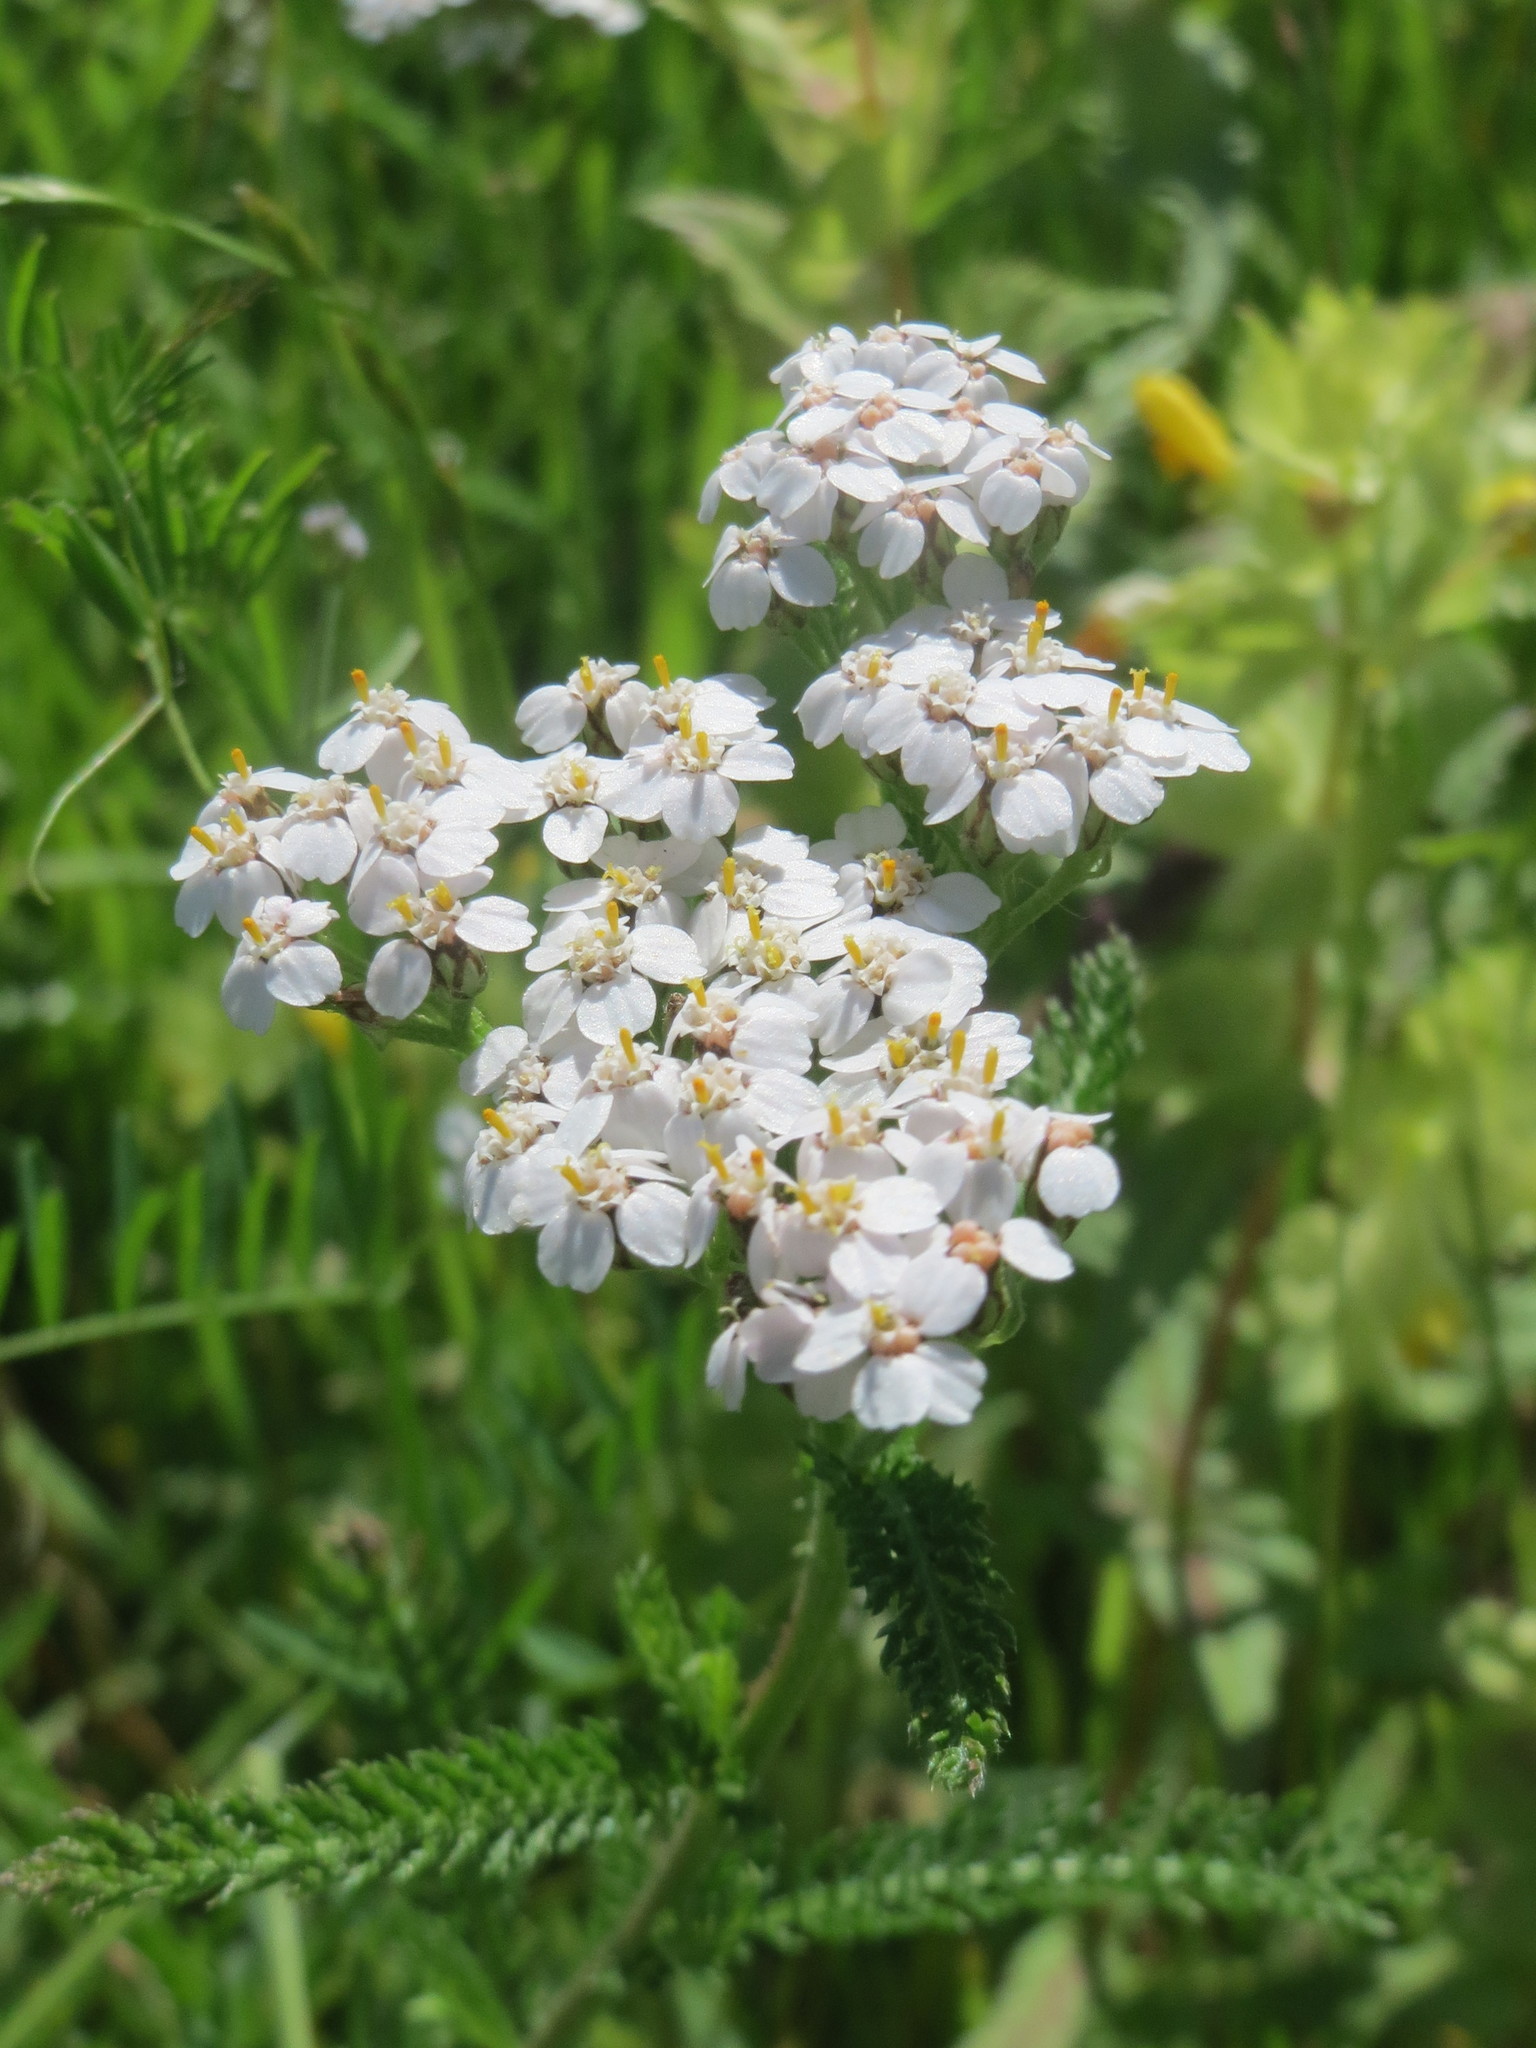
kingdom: Plantae
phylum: Tracheophyta
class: Magnoliopsida
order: Asterales
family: Asteraceae
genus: Achillea
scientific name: Achillea millefolium
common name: Yarrow
